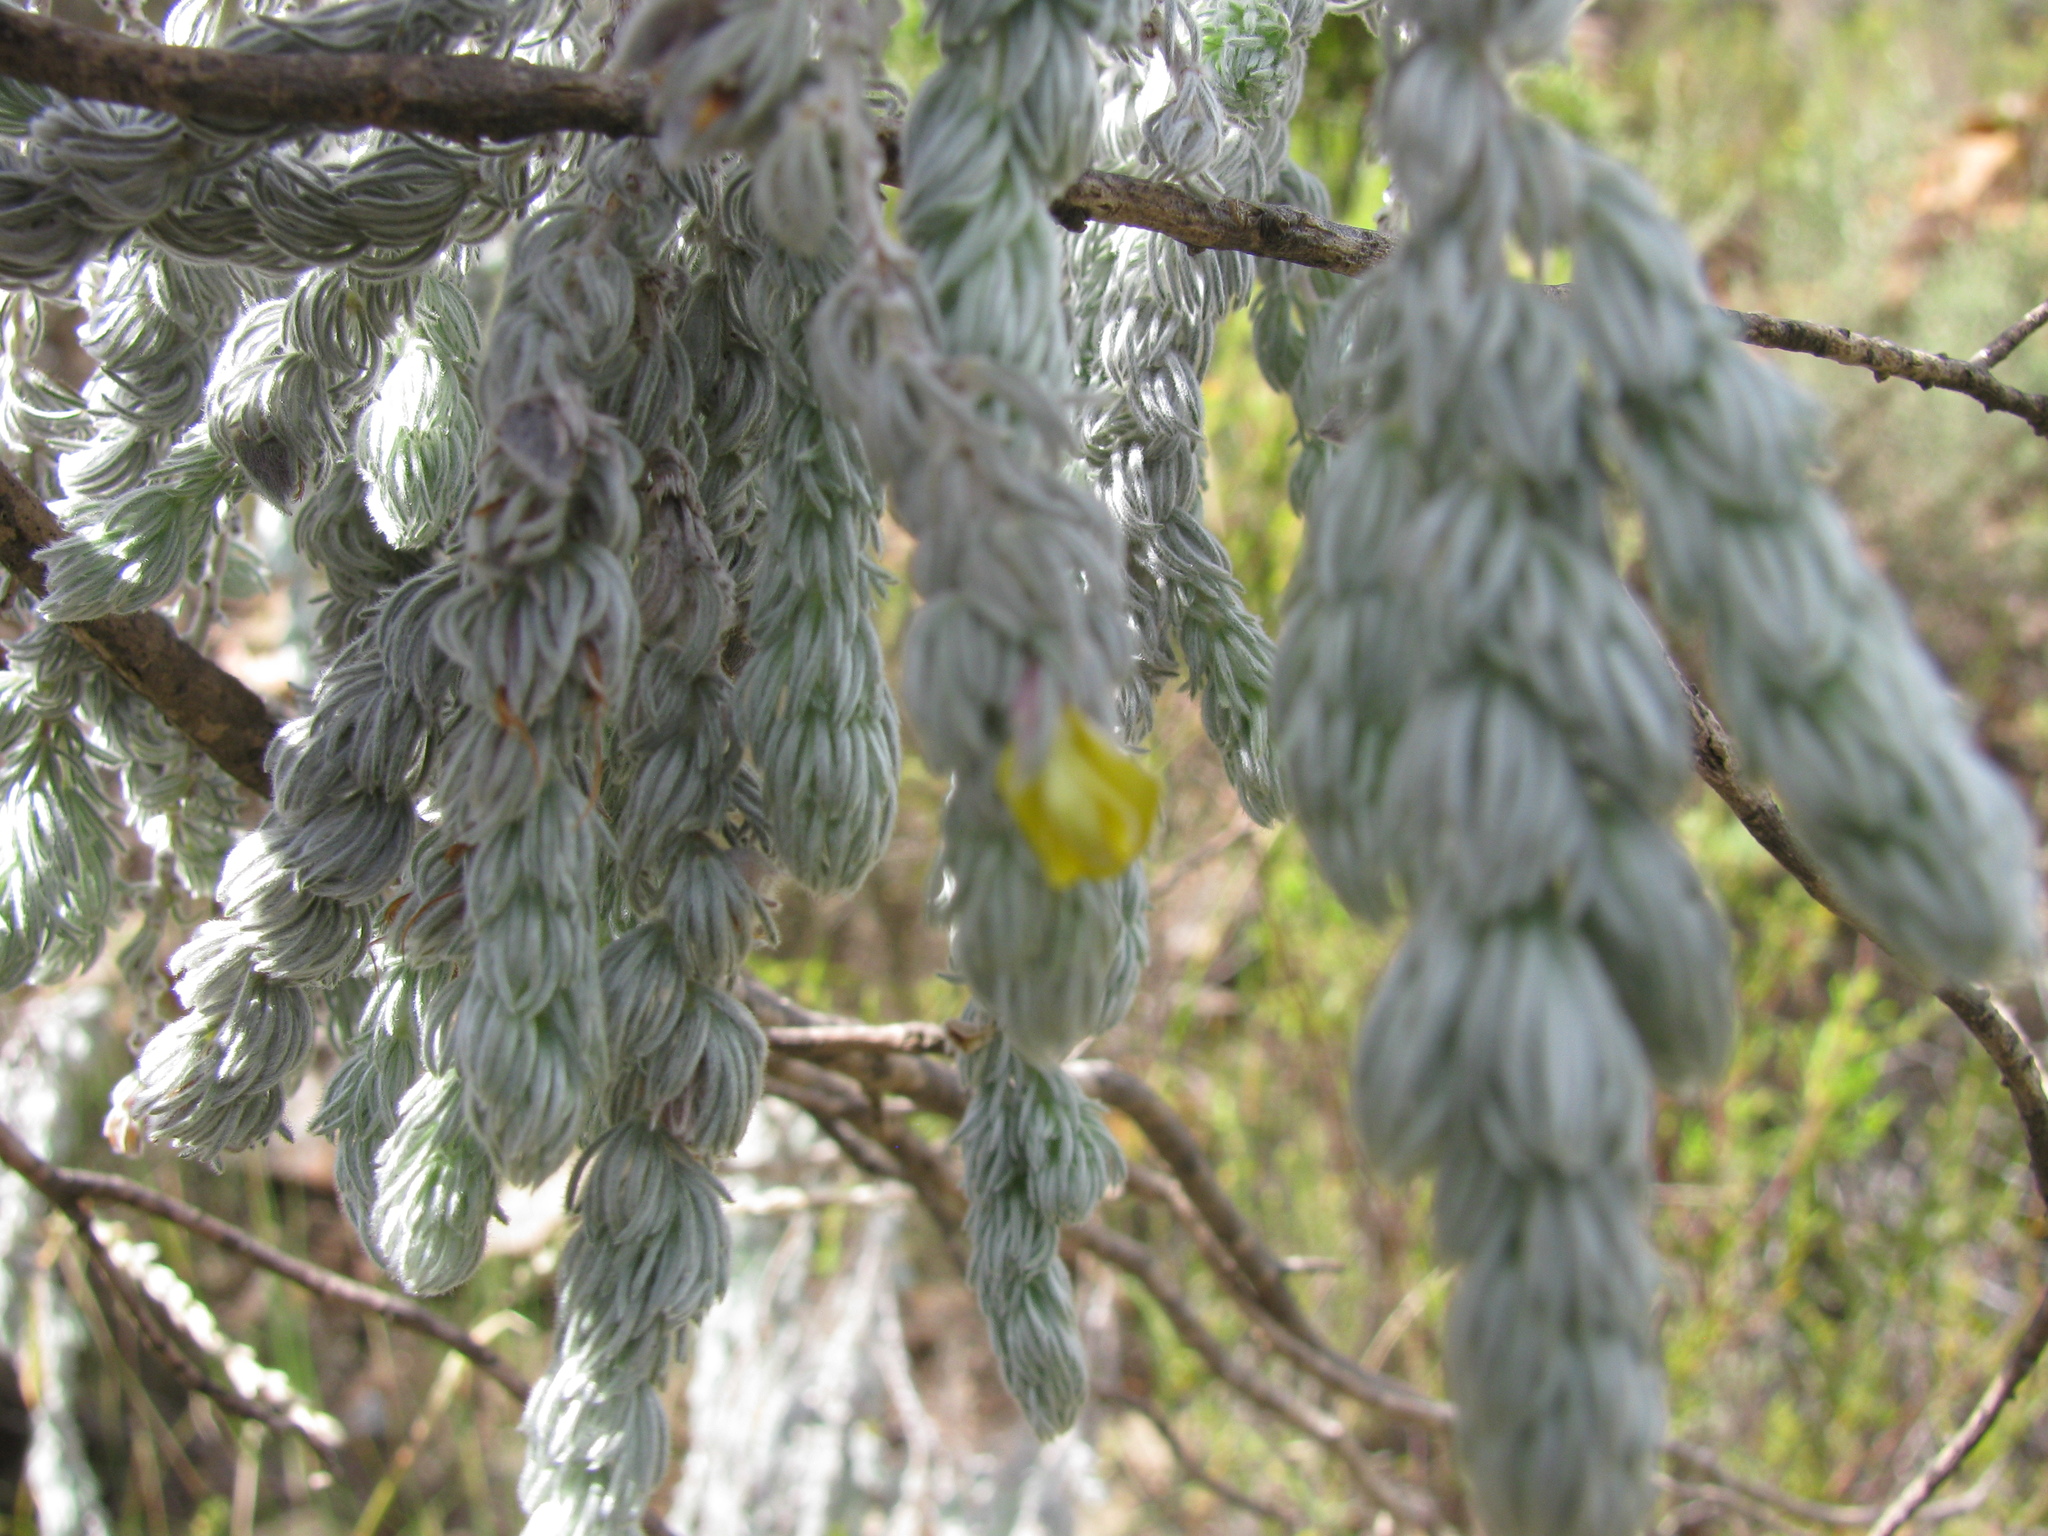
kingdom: Plantae
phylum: Tracheophyta
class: Magnoliopsida
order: Fabales
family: Fabaceae
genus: Aspalathus
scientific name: Aspalathus usnoides
